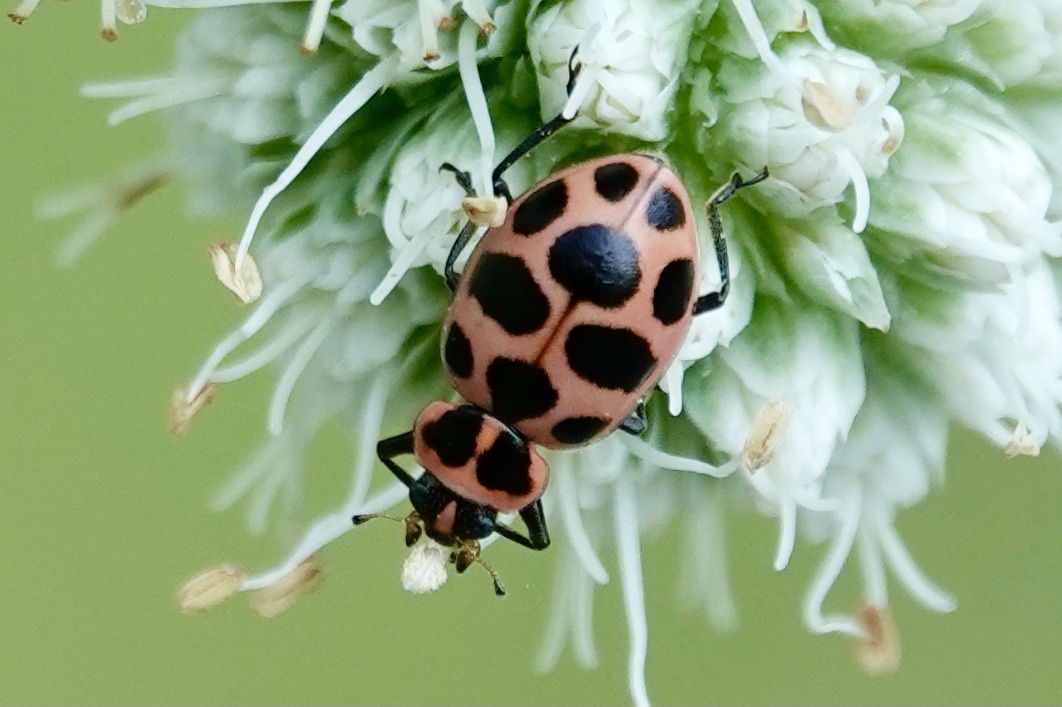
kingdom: Animalia
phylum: Arthropoda
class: Insecta
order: Coleoptera
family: Coccinellidae
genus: Coleomegilla
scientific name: Coleomegilla maculata
